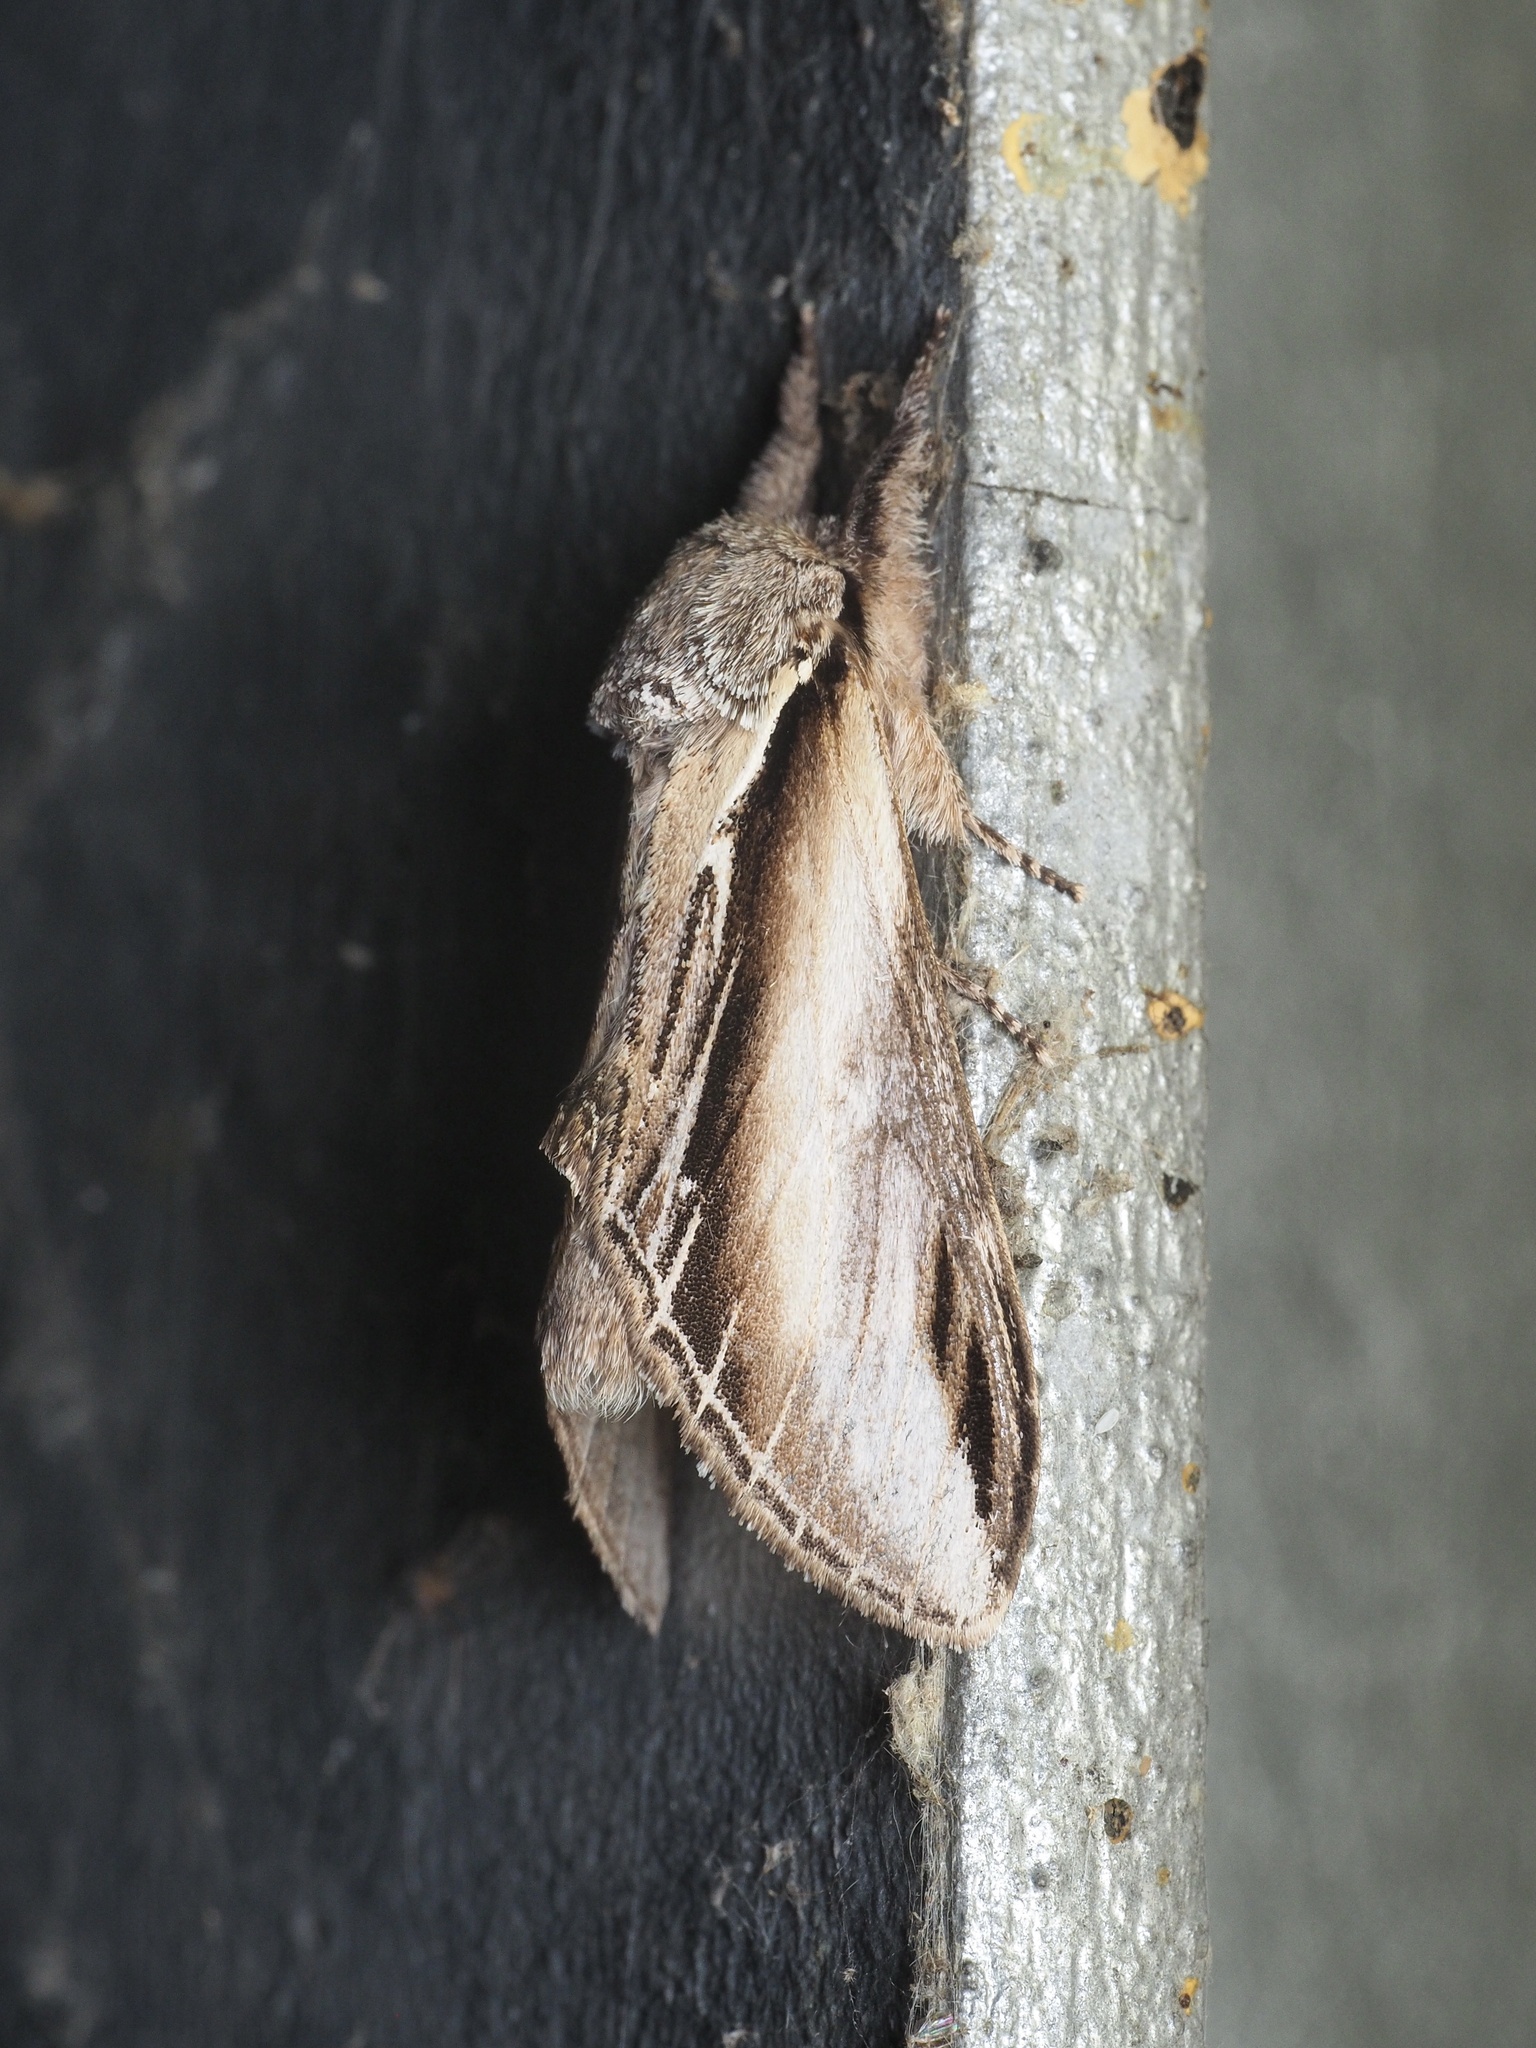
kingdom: Animalia
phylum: Arthropoda
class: Insecta
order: Lepidoptera
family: Notodontidae
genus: Pheosia
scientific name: Pheosia tremula
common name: Swallow prominent
